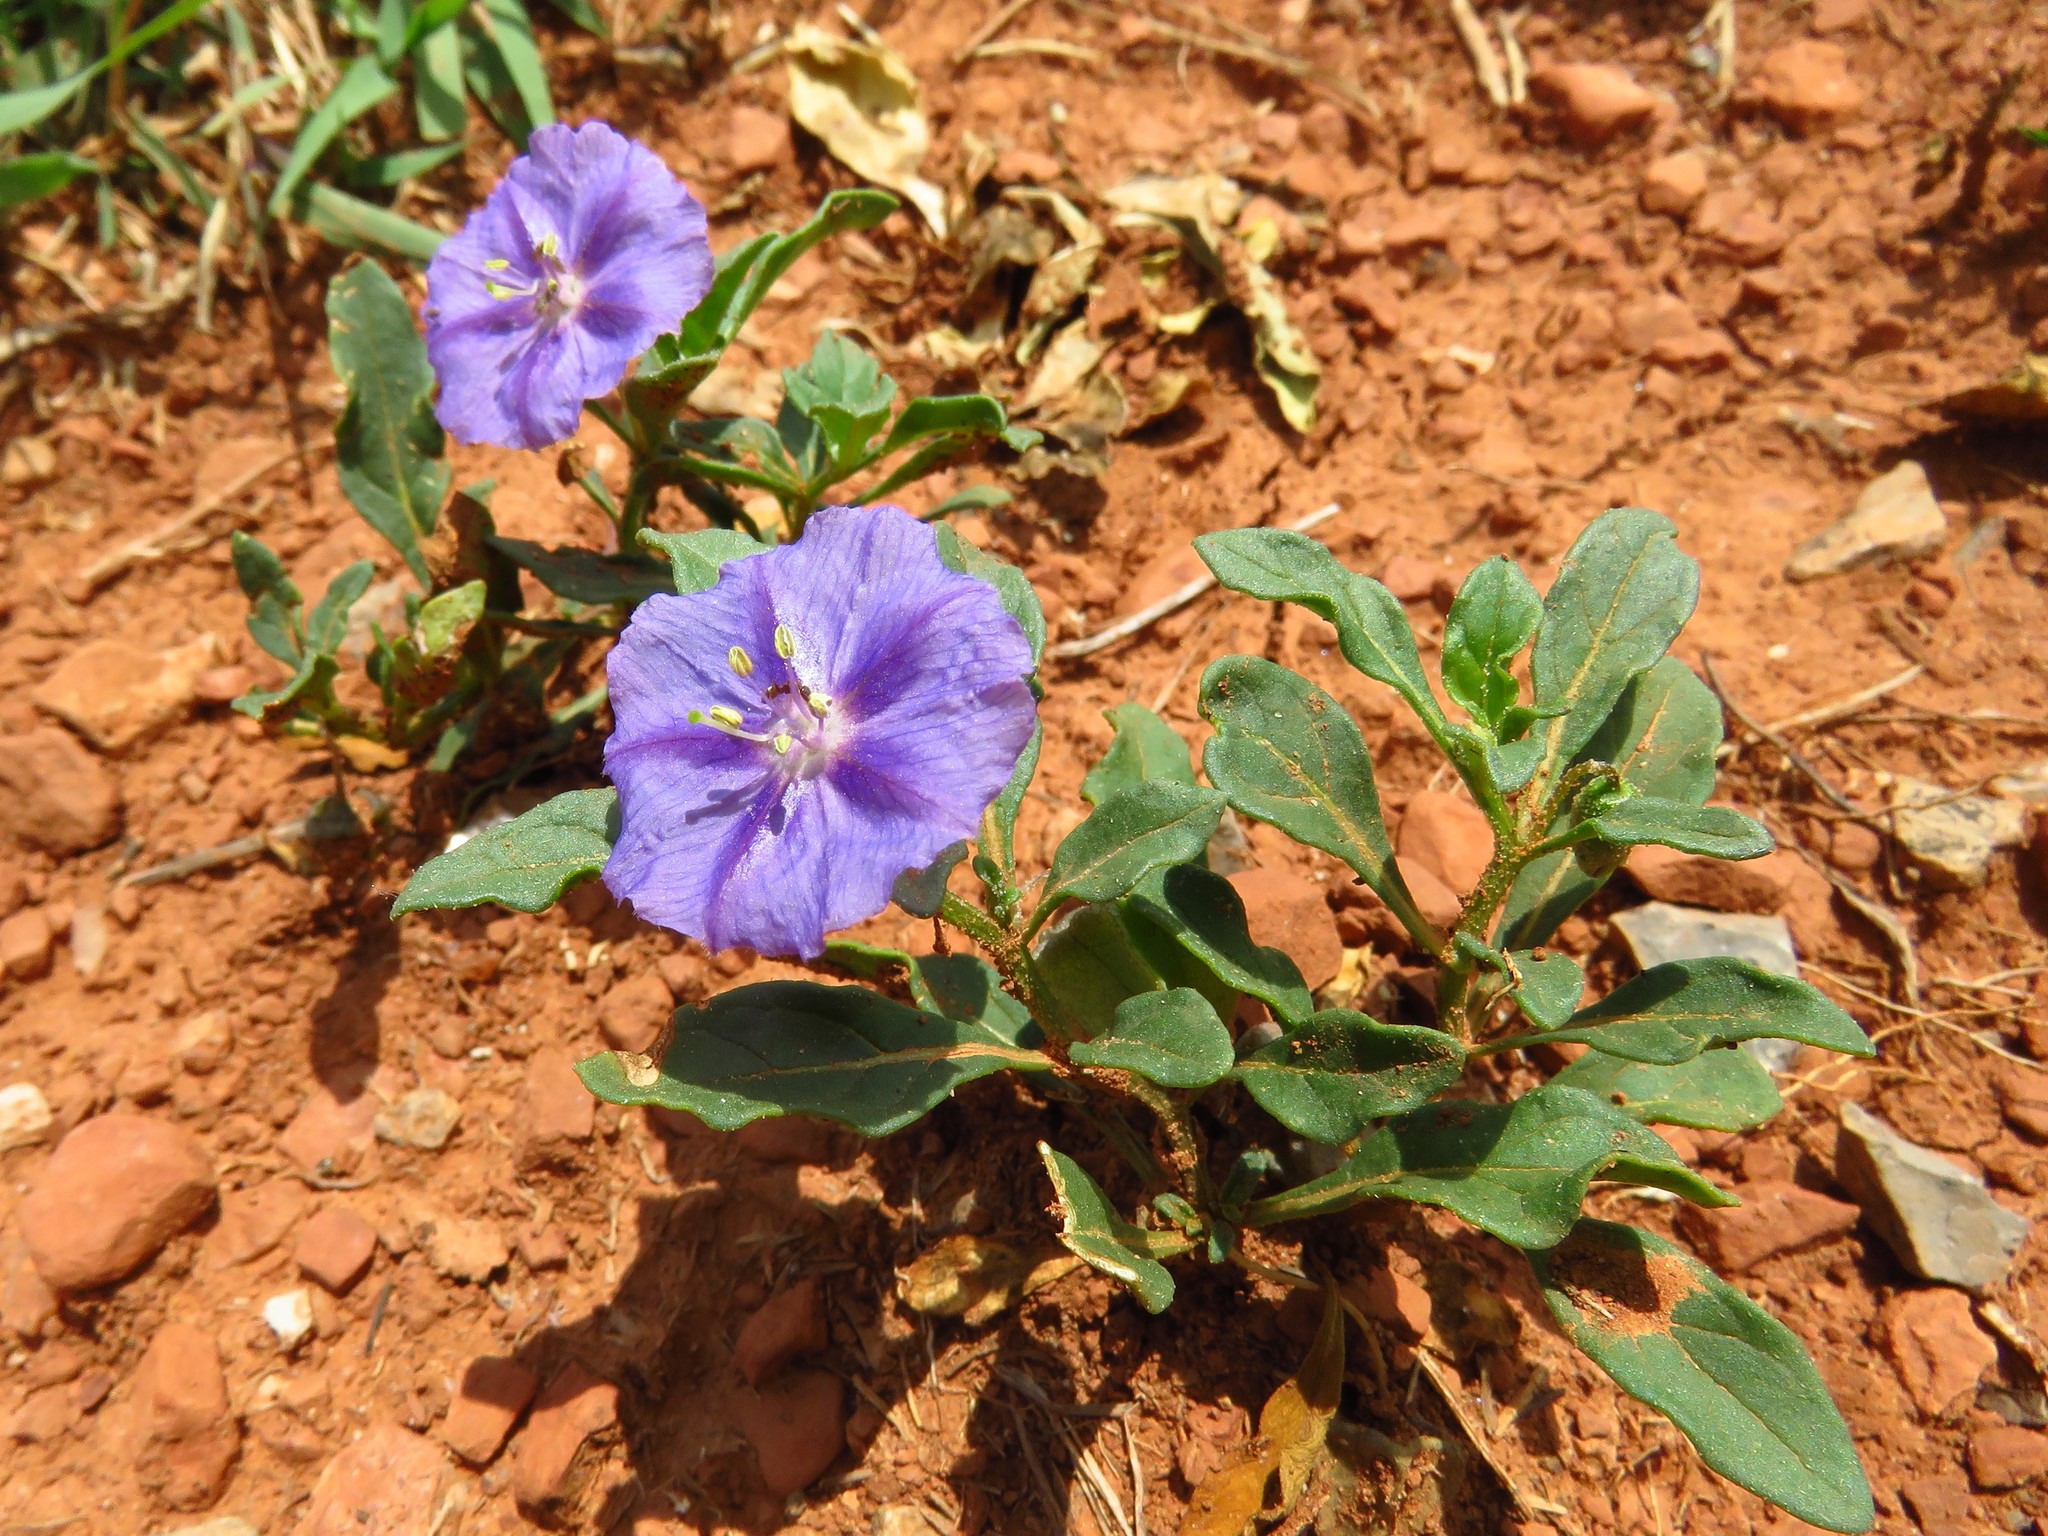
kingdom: Plantae
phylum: Tracheophyta
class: Magnoliopsida
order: Solanales
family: Solanaceae
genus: Quincula
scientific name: Quincula lobata
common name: Purple-ground-cherry
